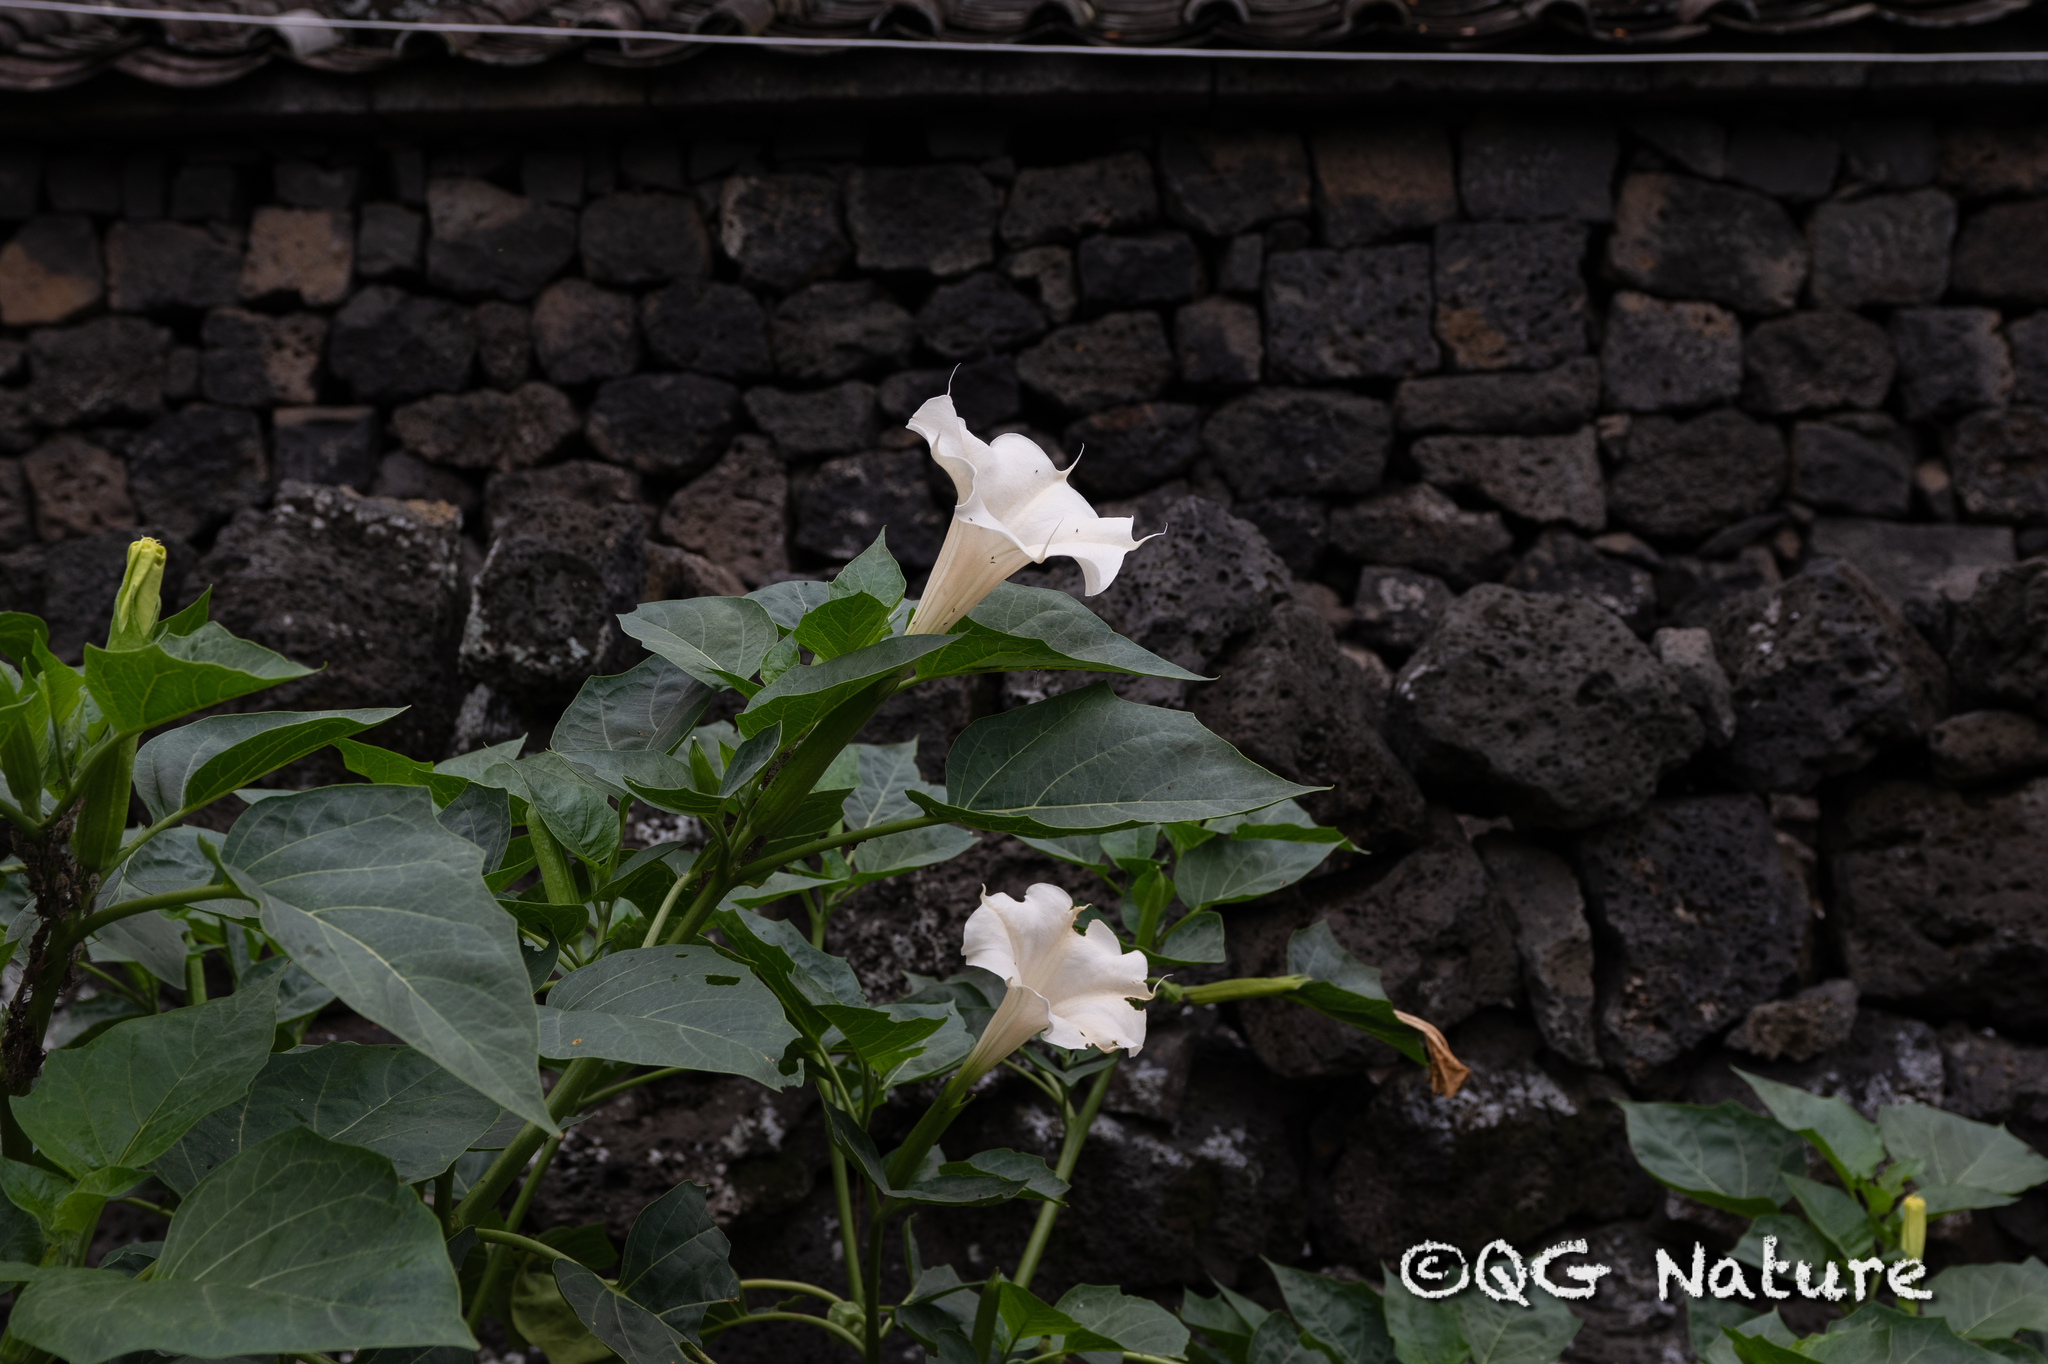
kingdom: Plantae
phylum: Tracheophyta
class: Magnoliopsida
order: Solanales
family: Solanaceae
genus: Datura
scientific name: Datura metel
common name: Jimsonweed
